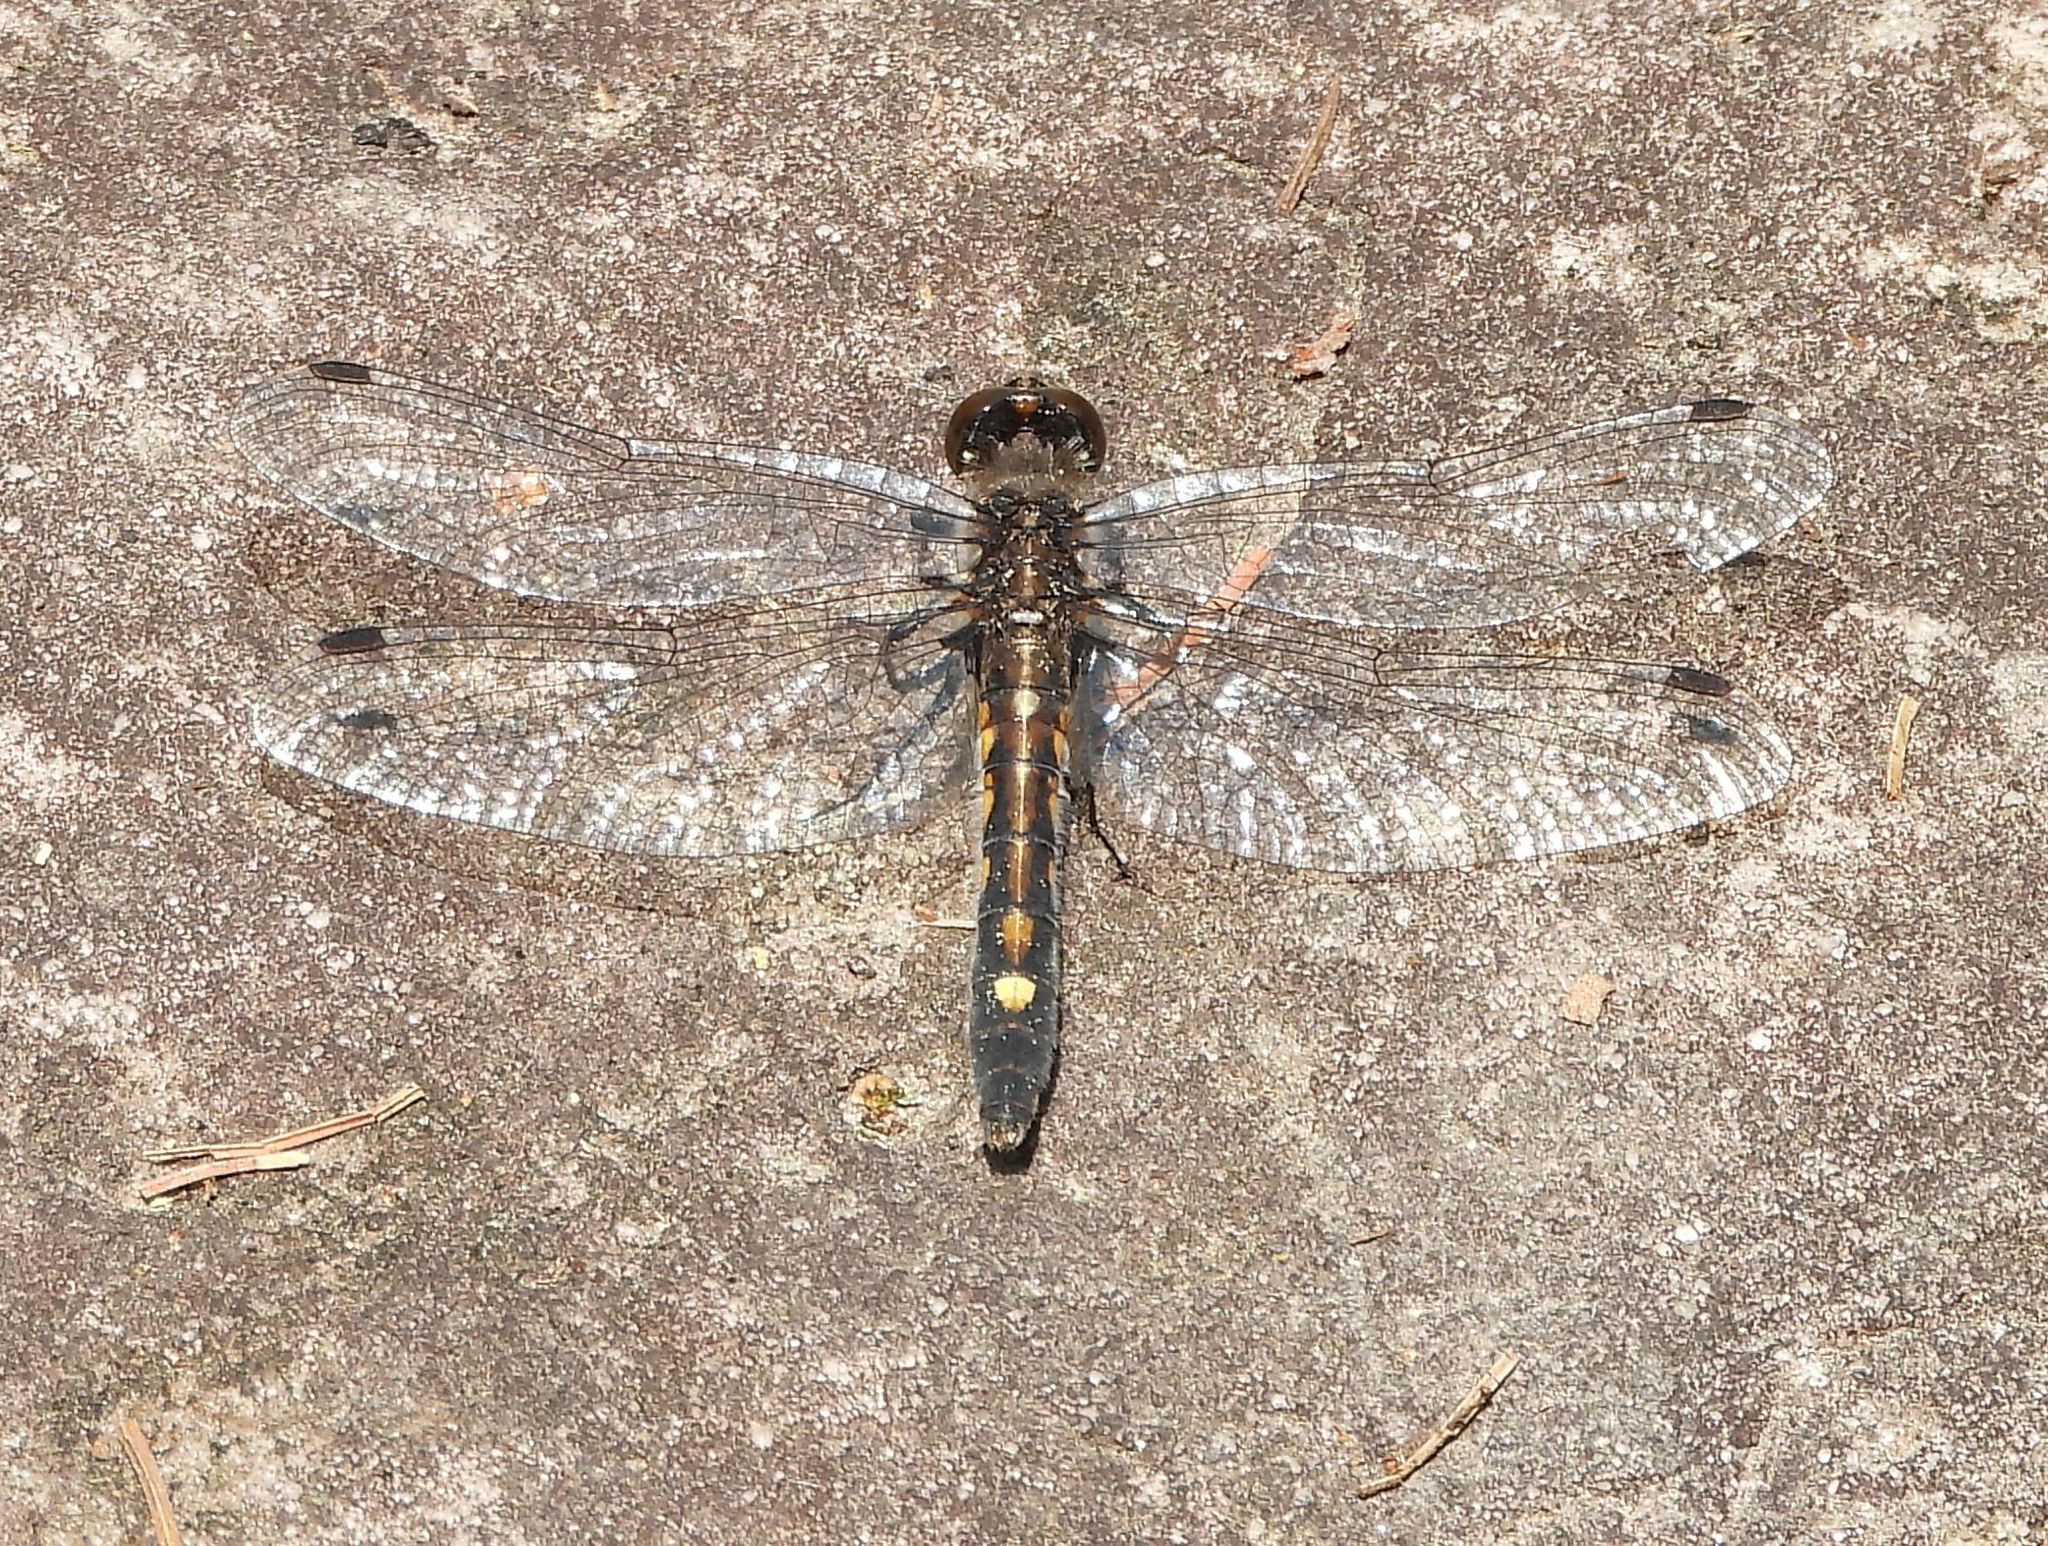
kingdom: Animalia
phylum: Arthropoda
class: Insecta
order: Odonata
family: Libellulidae
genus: Leucorrhinia
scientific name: Leucorrhinia intacta
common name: Dot-tailed whiteface
